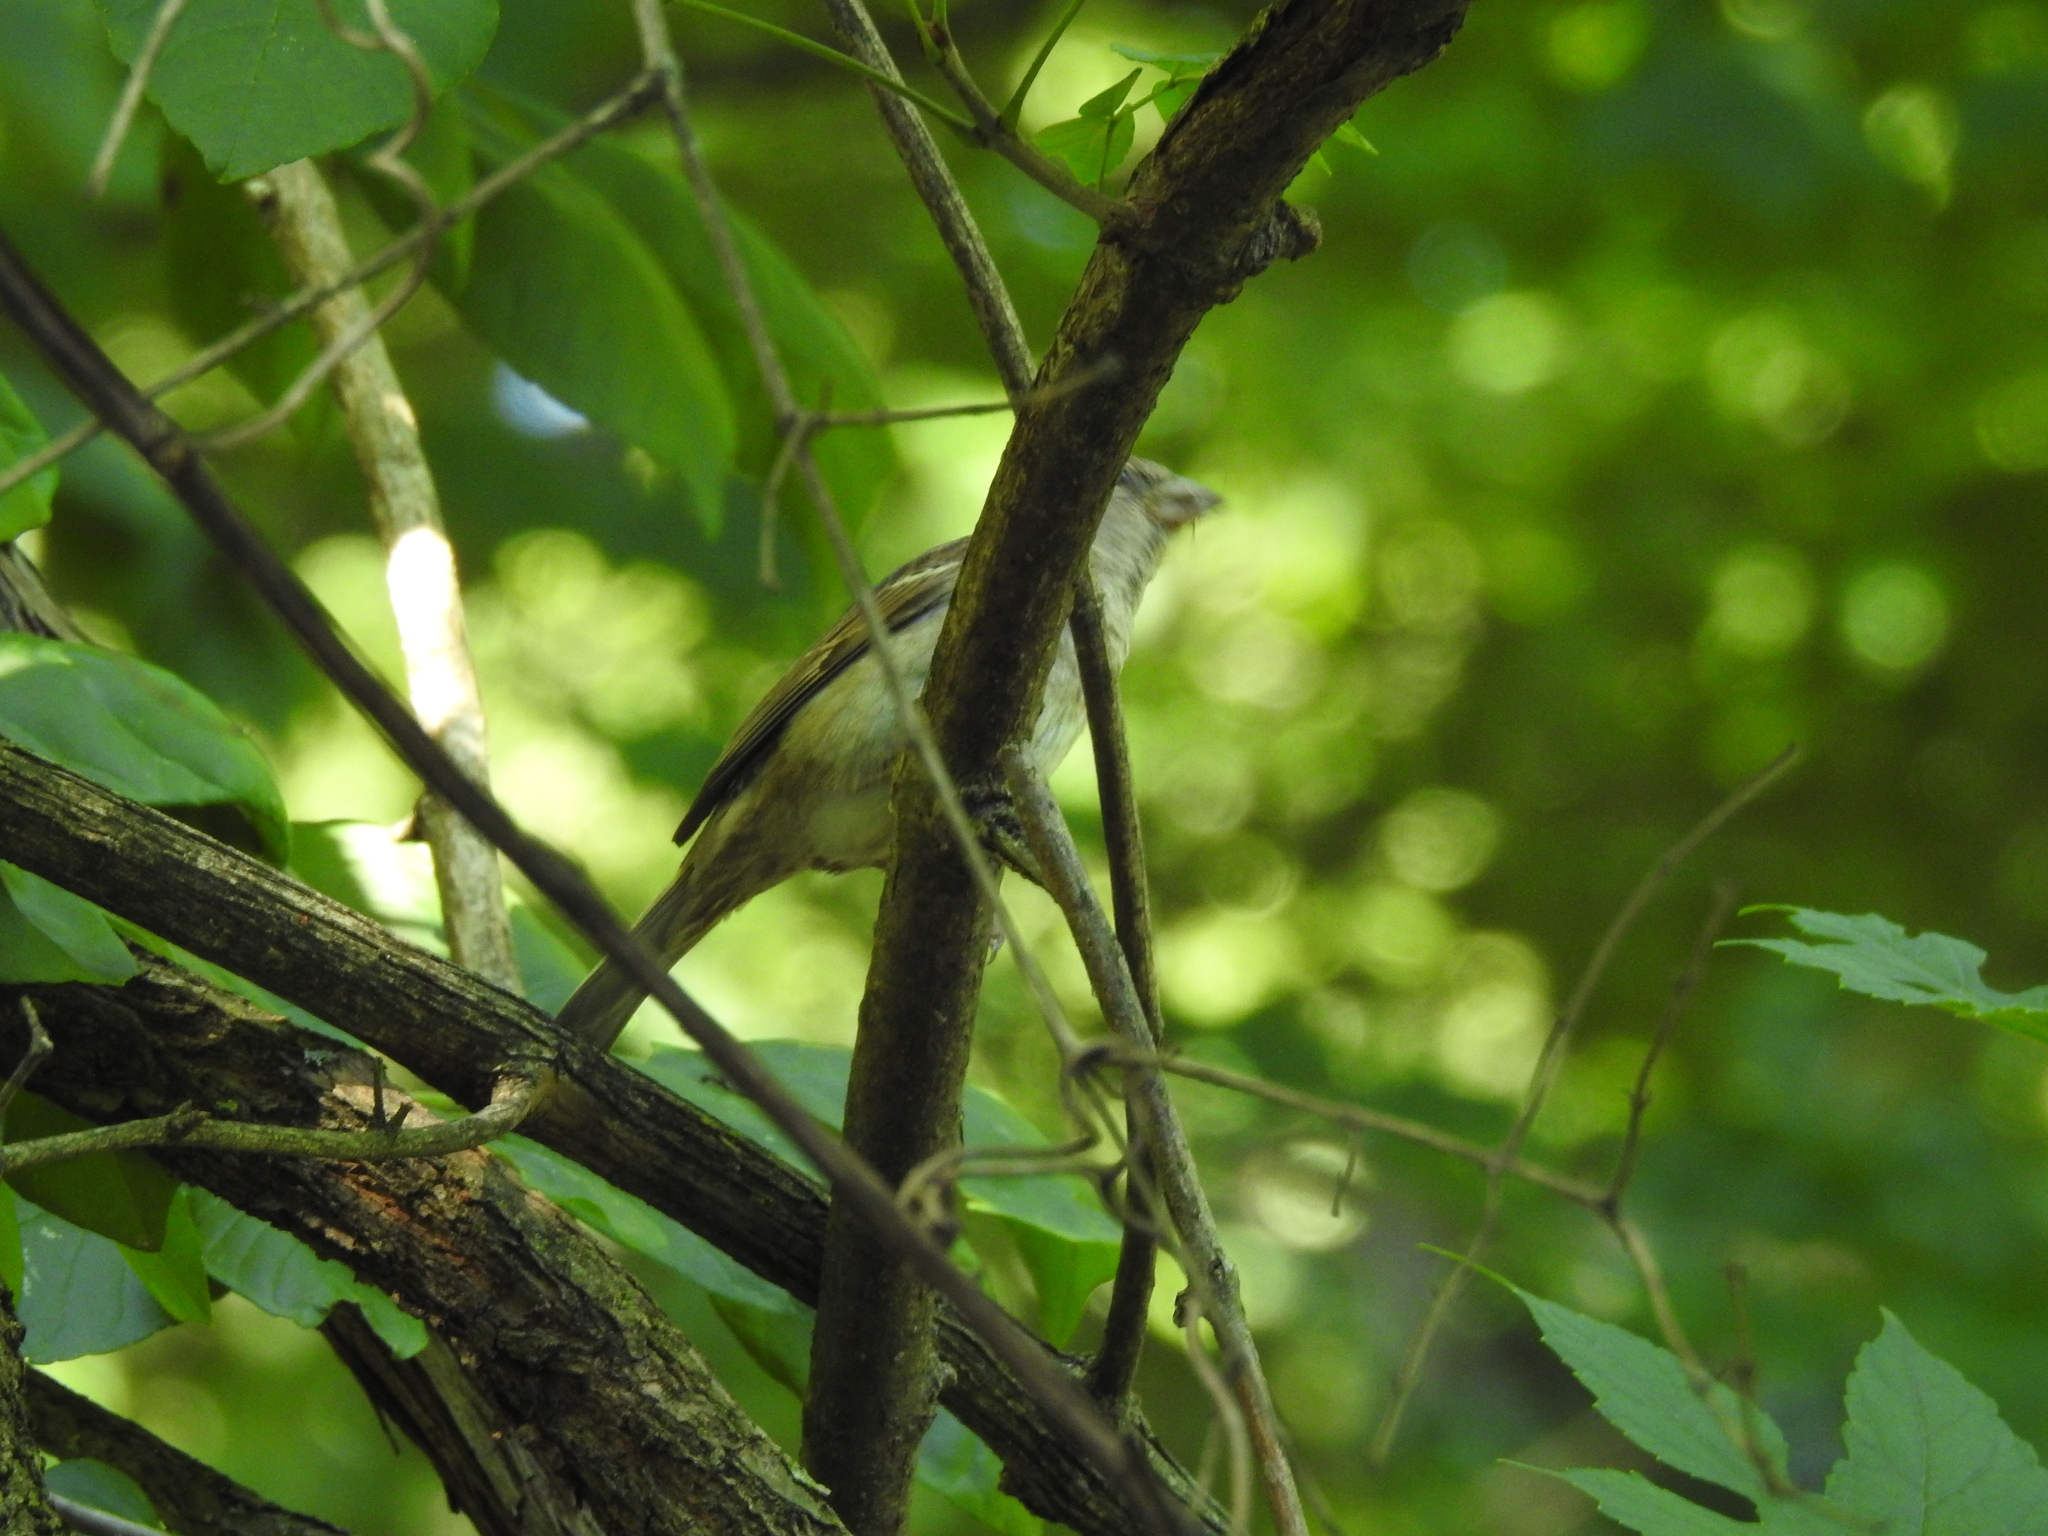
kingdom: Animalia
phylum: Chordata
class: Aves
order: Passeriformes
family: Passeridae
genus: Passer
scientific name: Passer domesticus
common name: House sparrow
